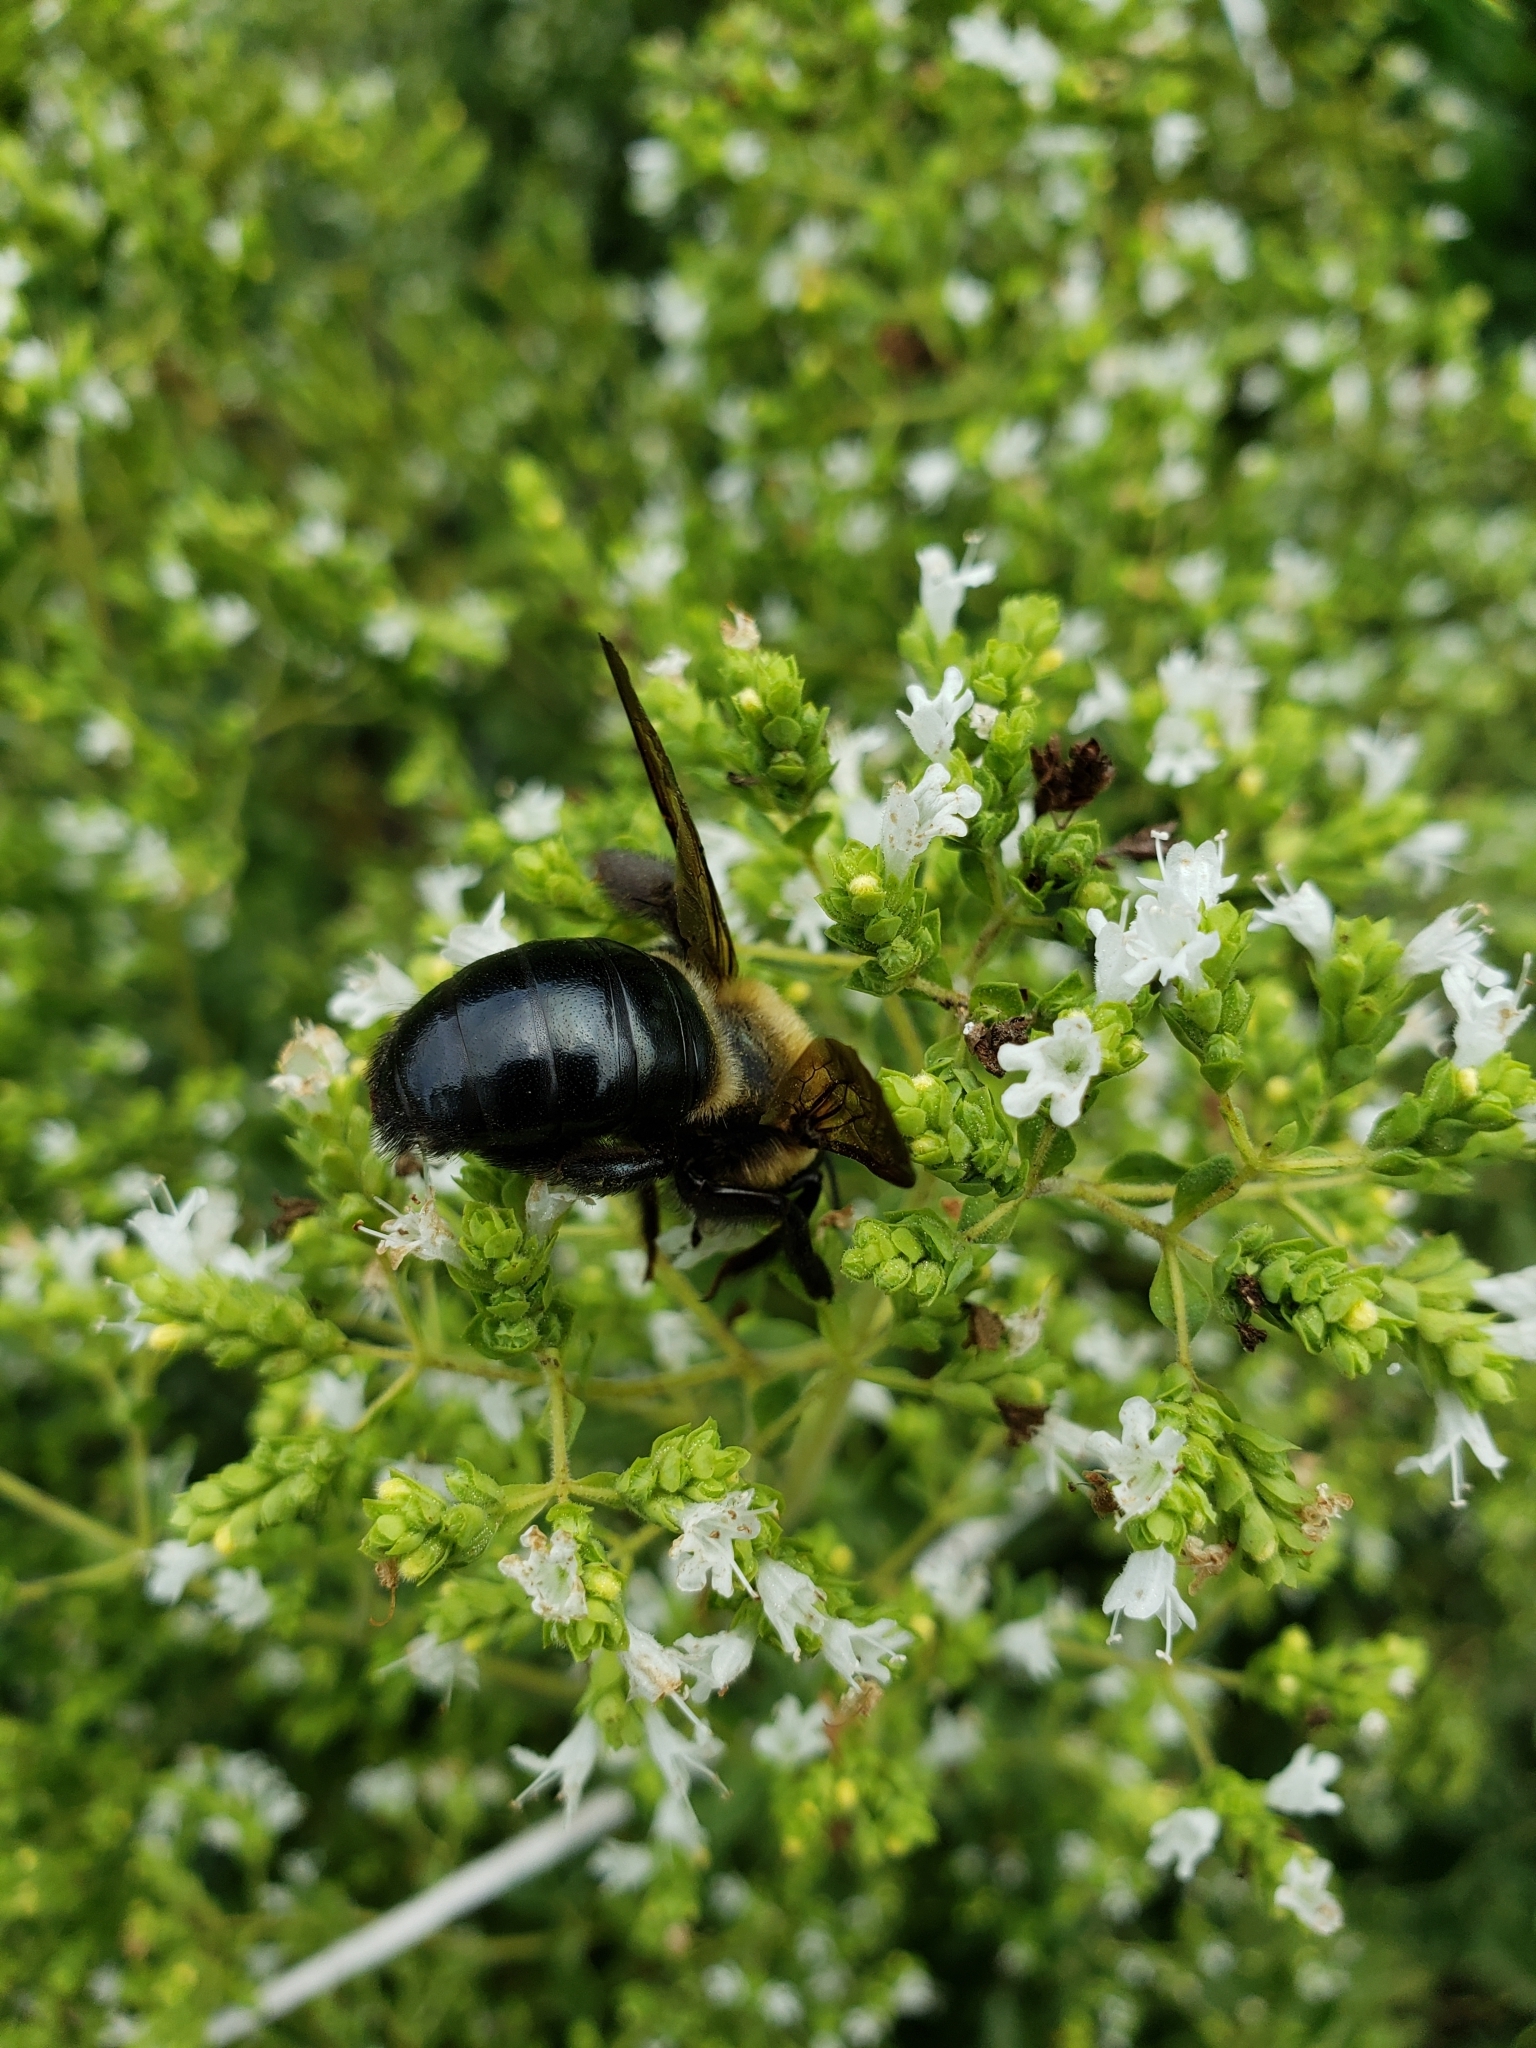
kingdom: Animalia
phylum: Arthropoda
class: Insecta
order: Hymenoptera
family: Apidae
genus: Xylocopa
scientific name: Xylocopa virginica
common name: Carpenter bee
